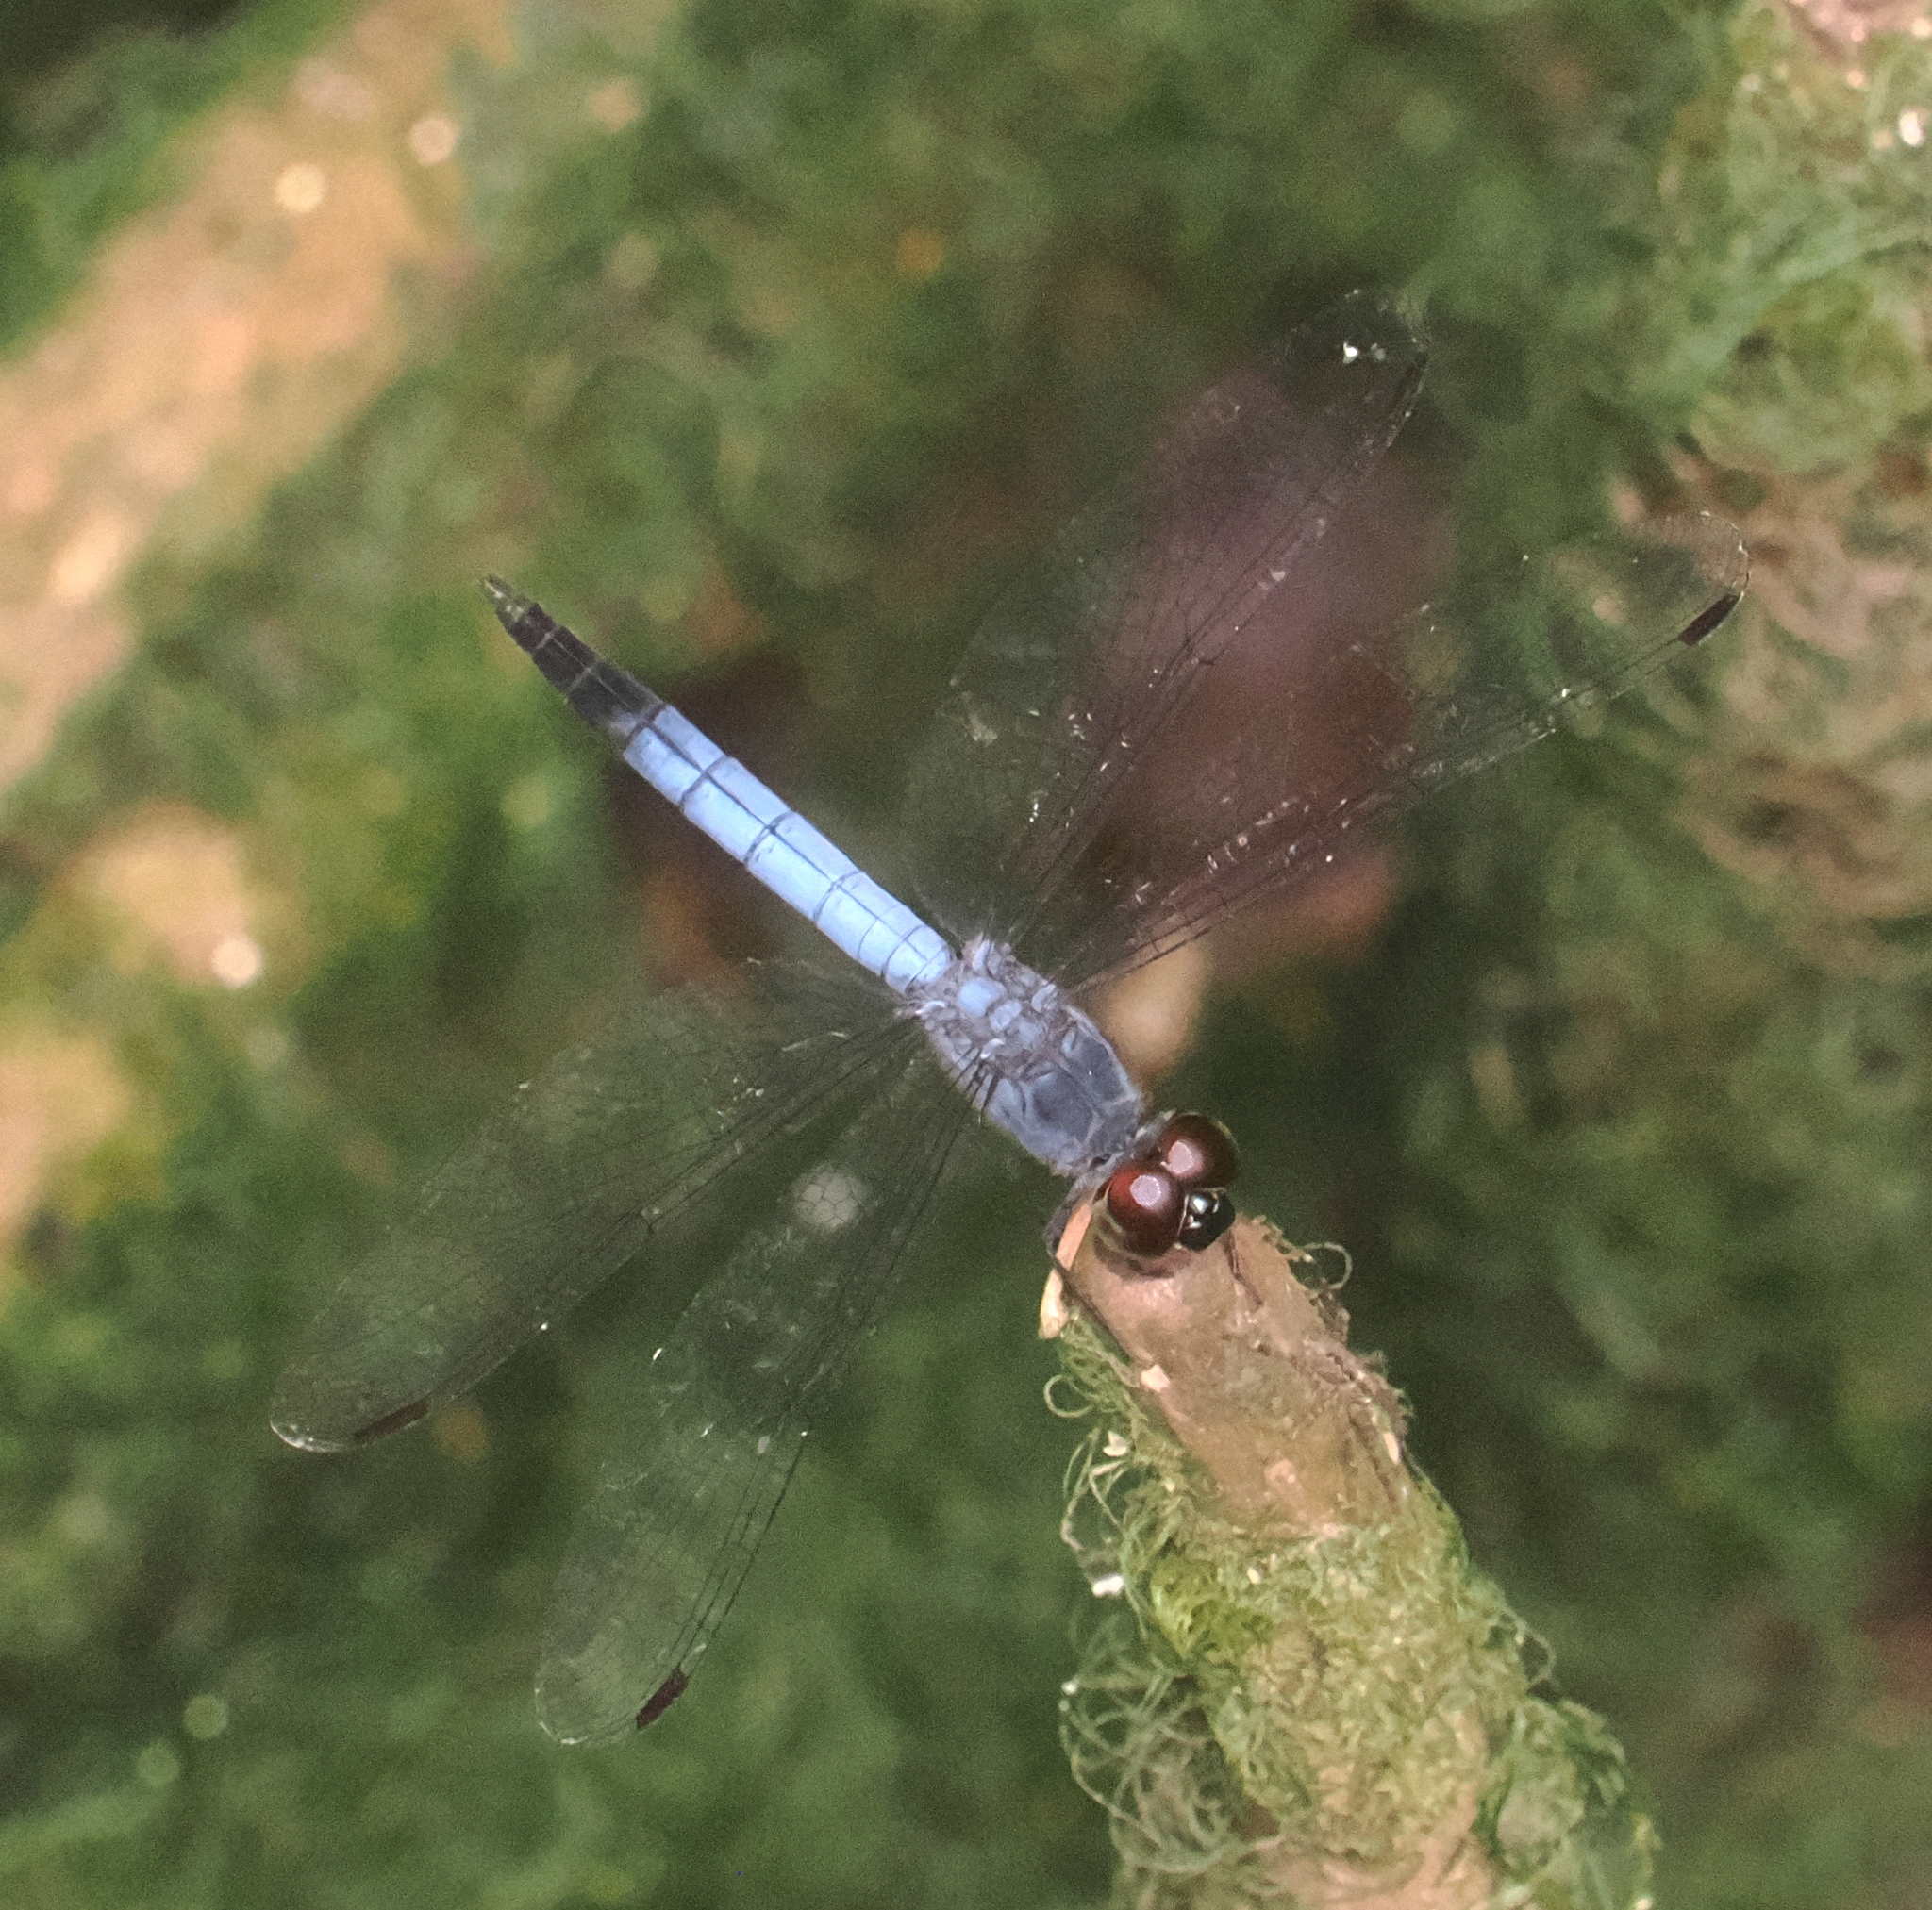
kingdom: Animalia
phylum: Arthropoda
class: Insecta
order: Odonata
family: Libellulidae
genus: Raphismia
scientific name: Raphismia bispina
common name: Mangrove dwarf
